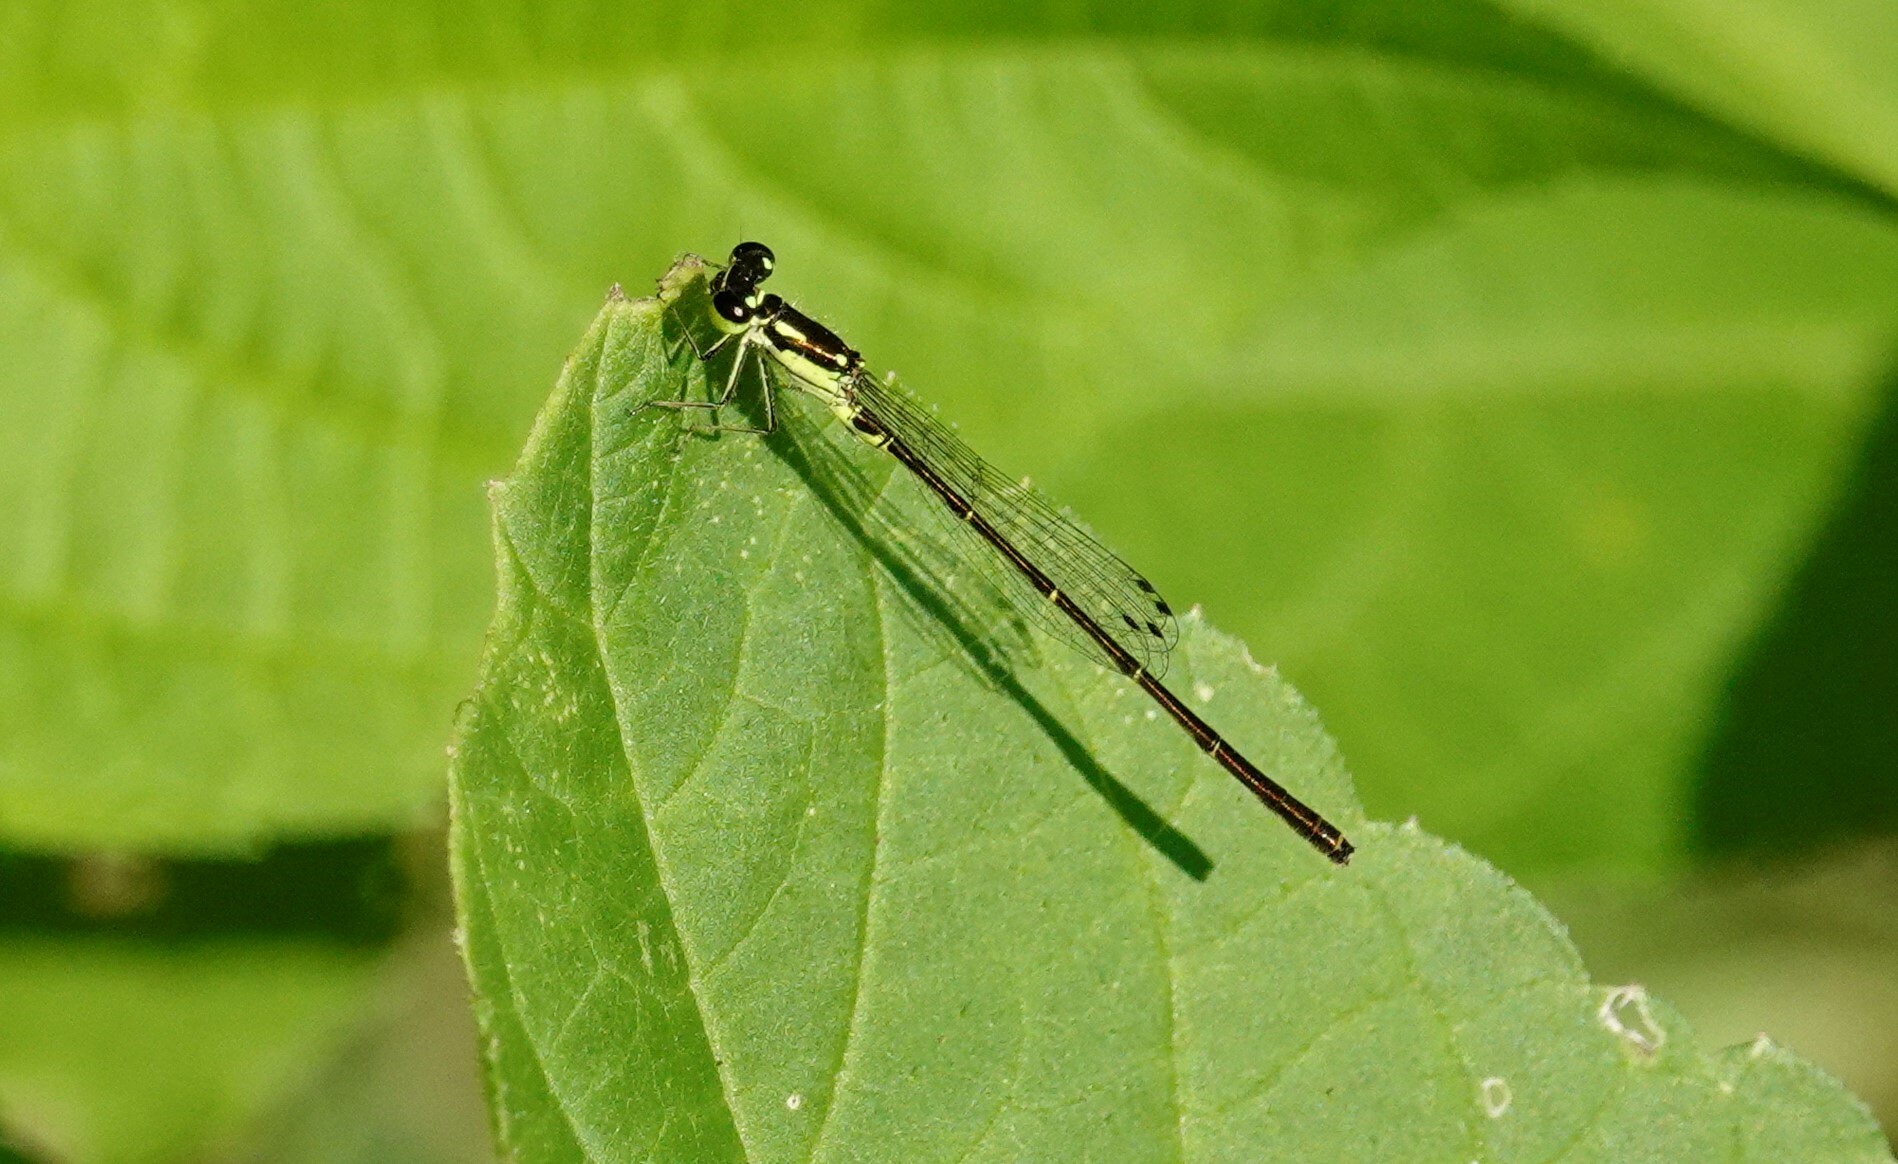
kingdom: Animalia
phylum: Arthropoda
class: Insecta
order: Odonata
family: Coenagrionidae
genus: Ischnura
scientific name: Ischnura posita
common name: Fragile forktail
